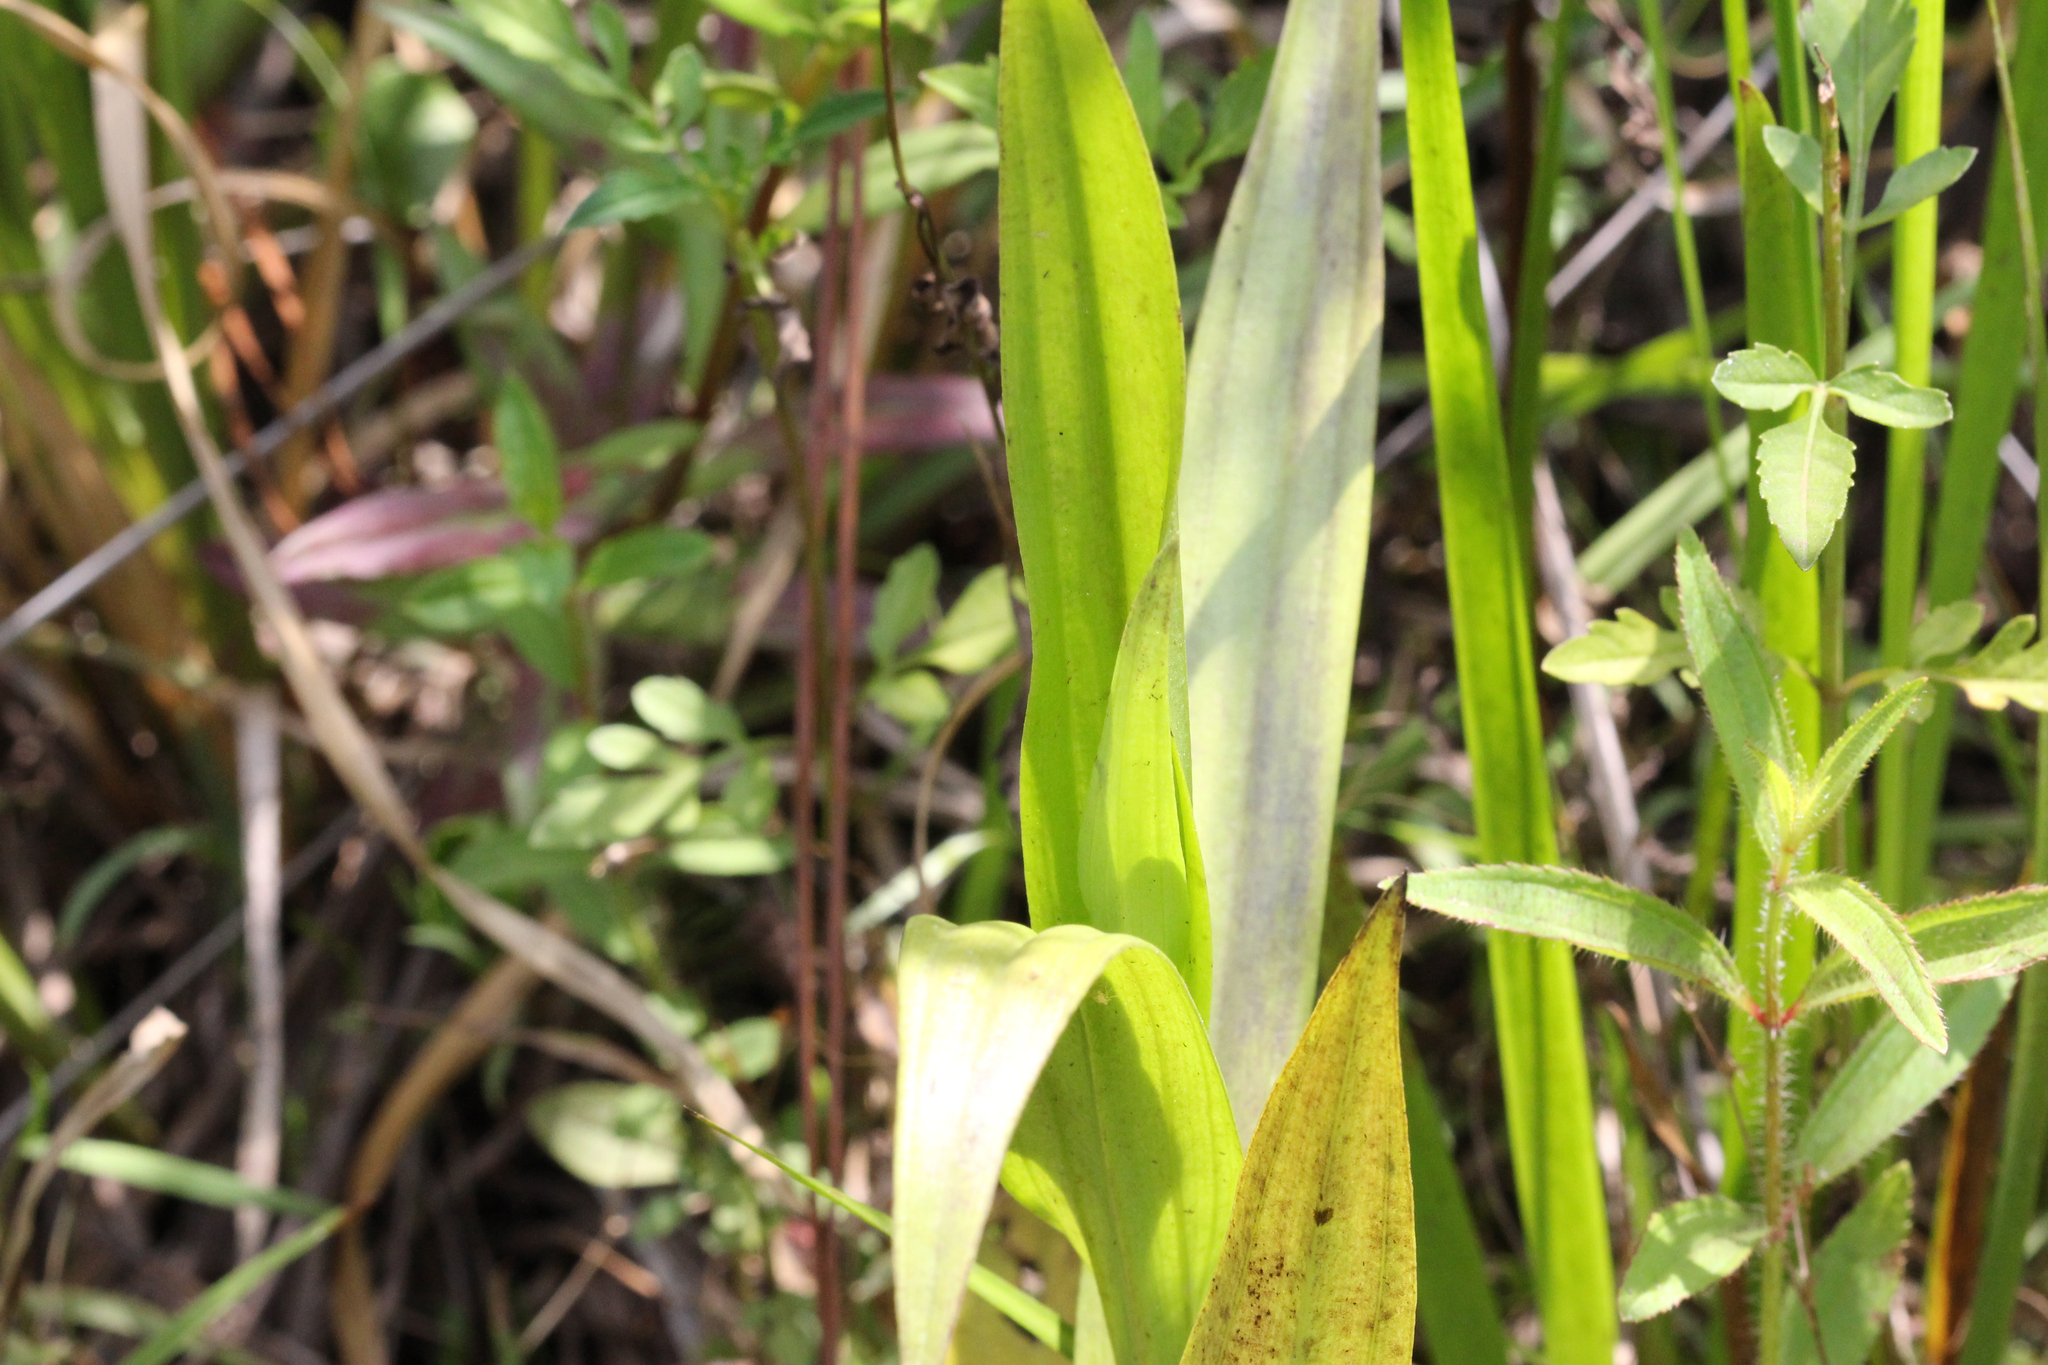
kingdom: Plantae
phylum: Tracheophyta
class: Liliopsida
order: Asparagales
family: Orchidaceae
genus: Habenaria
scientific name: Habenaria repens
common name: Water orchid
